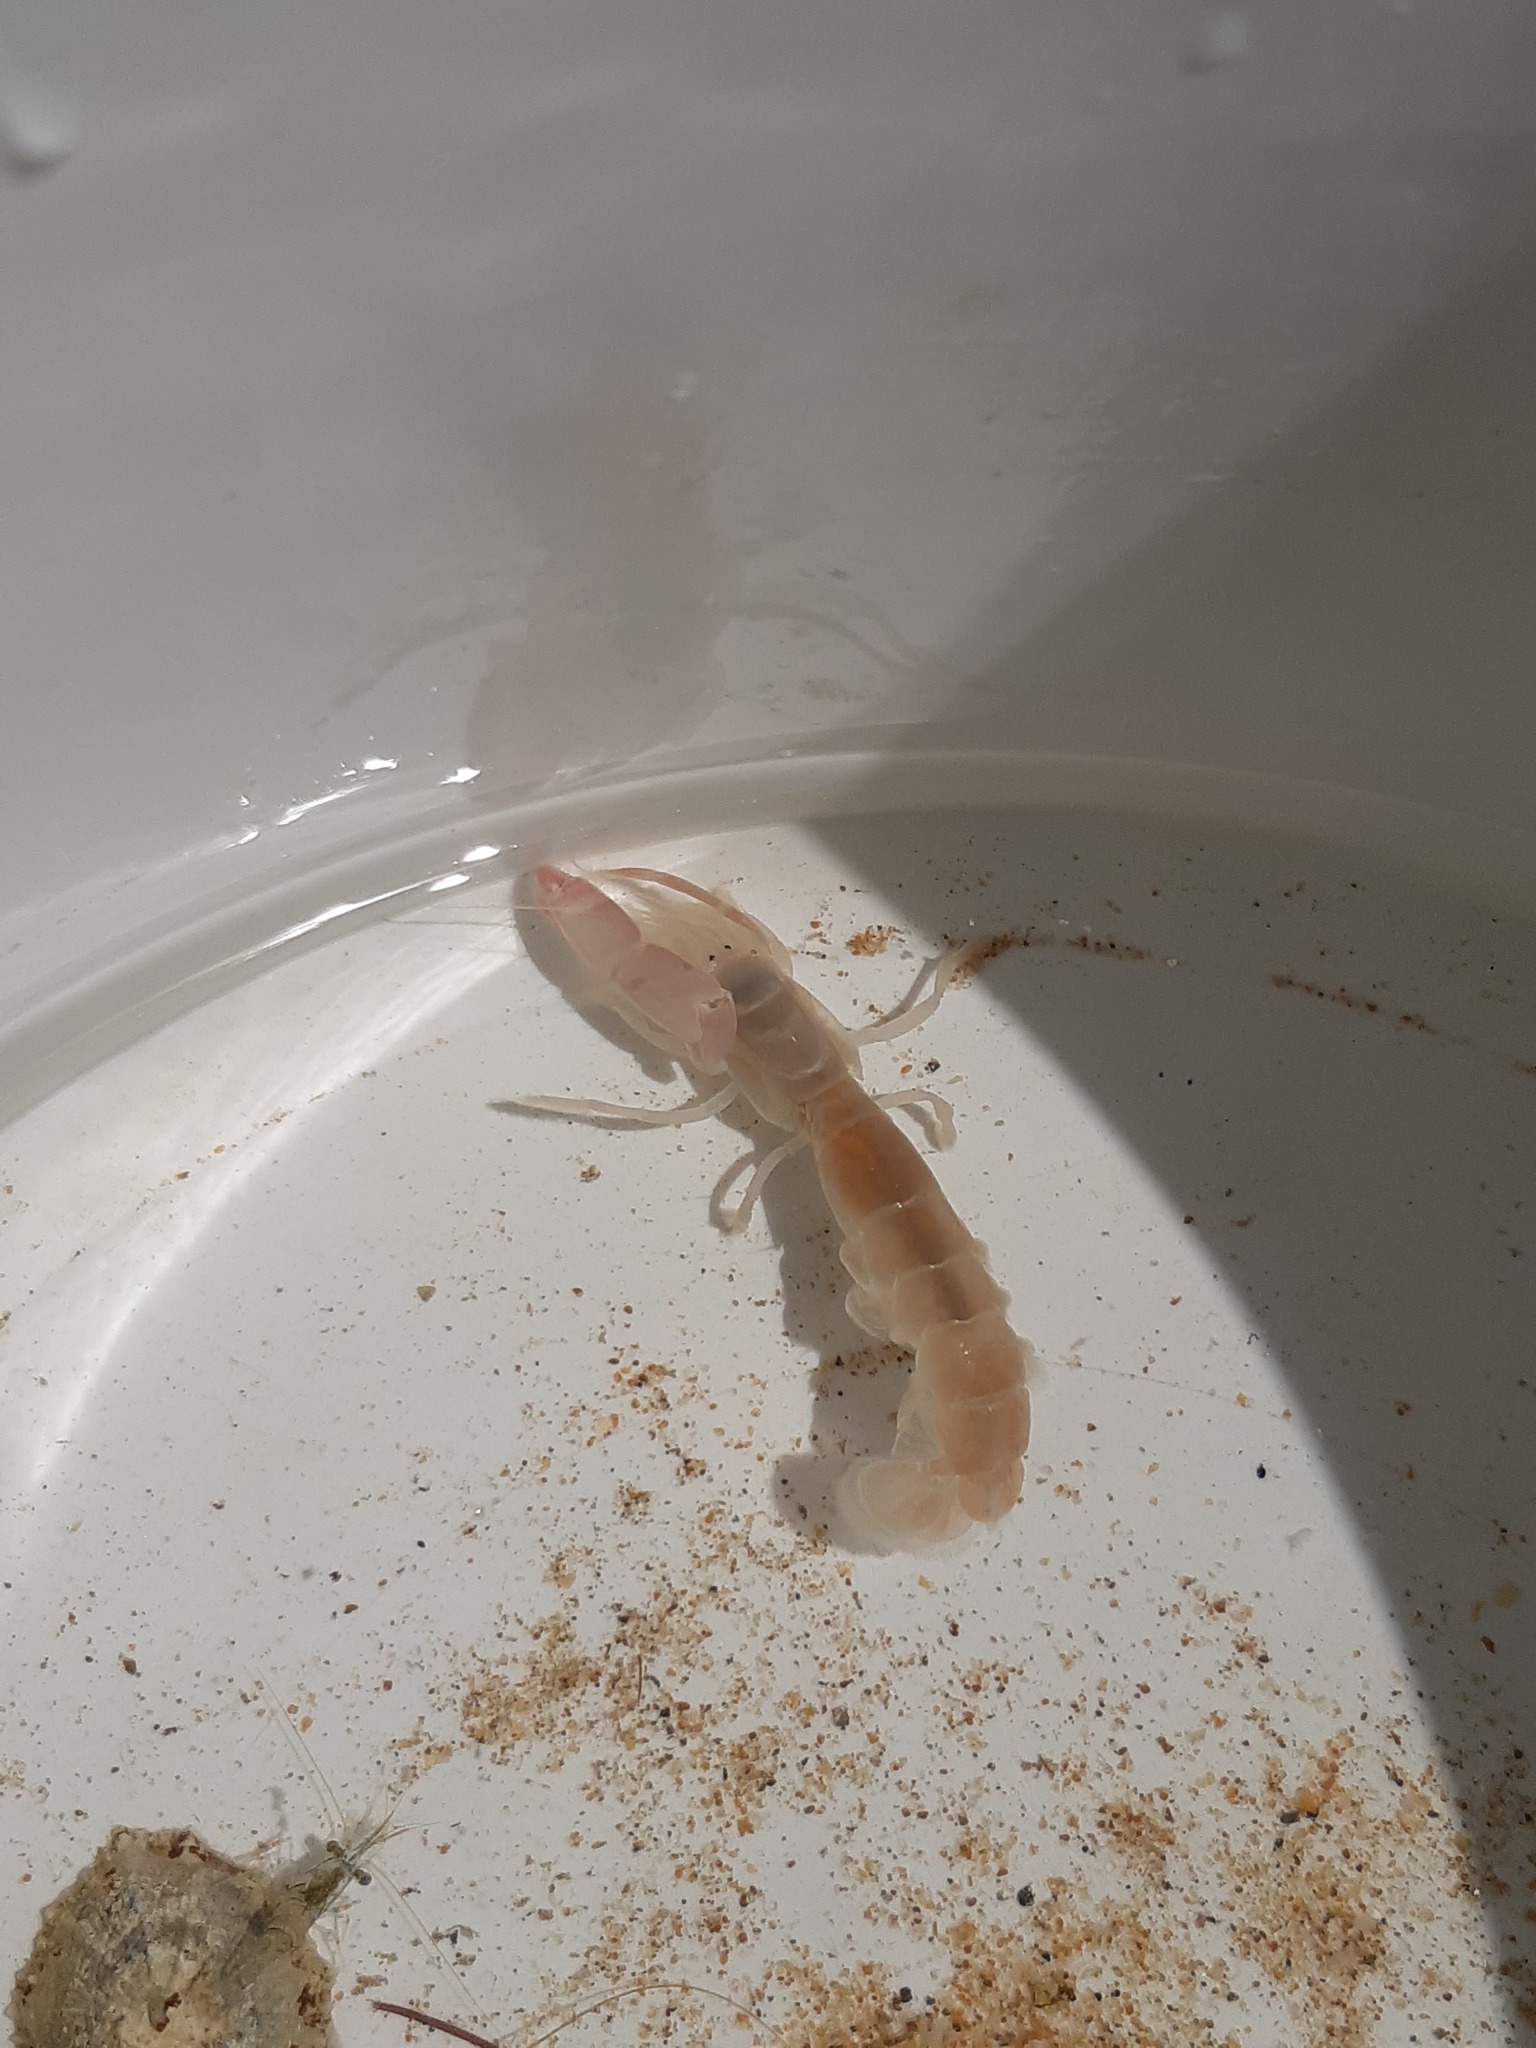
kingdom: Animalia
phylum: Arthropoda
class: Malacostraca
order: Decapoda
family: Callianassidae
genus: Gilvossius
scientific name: Gilvossius tyrrhenus
